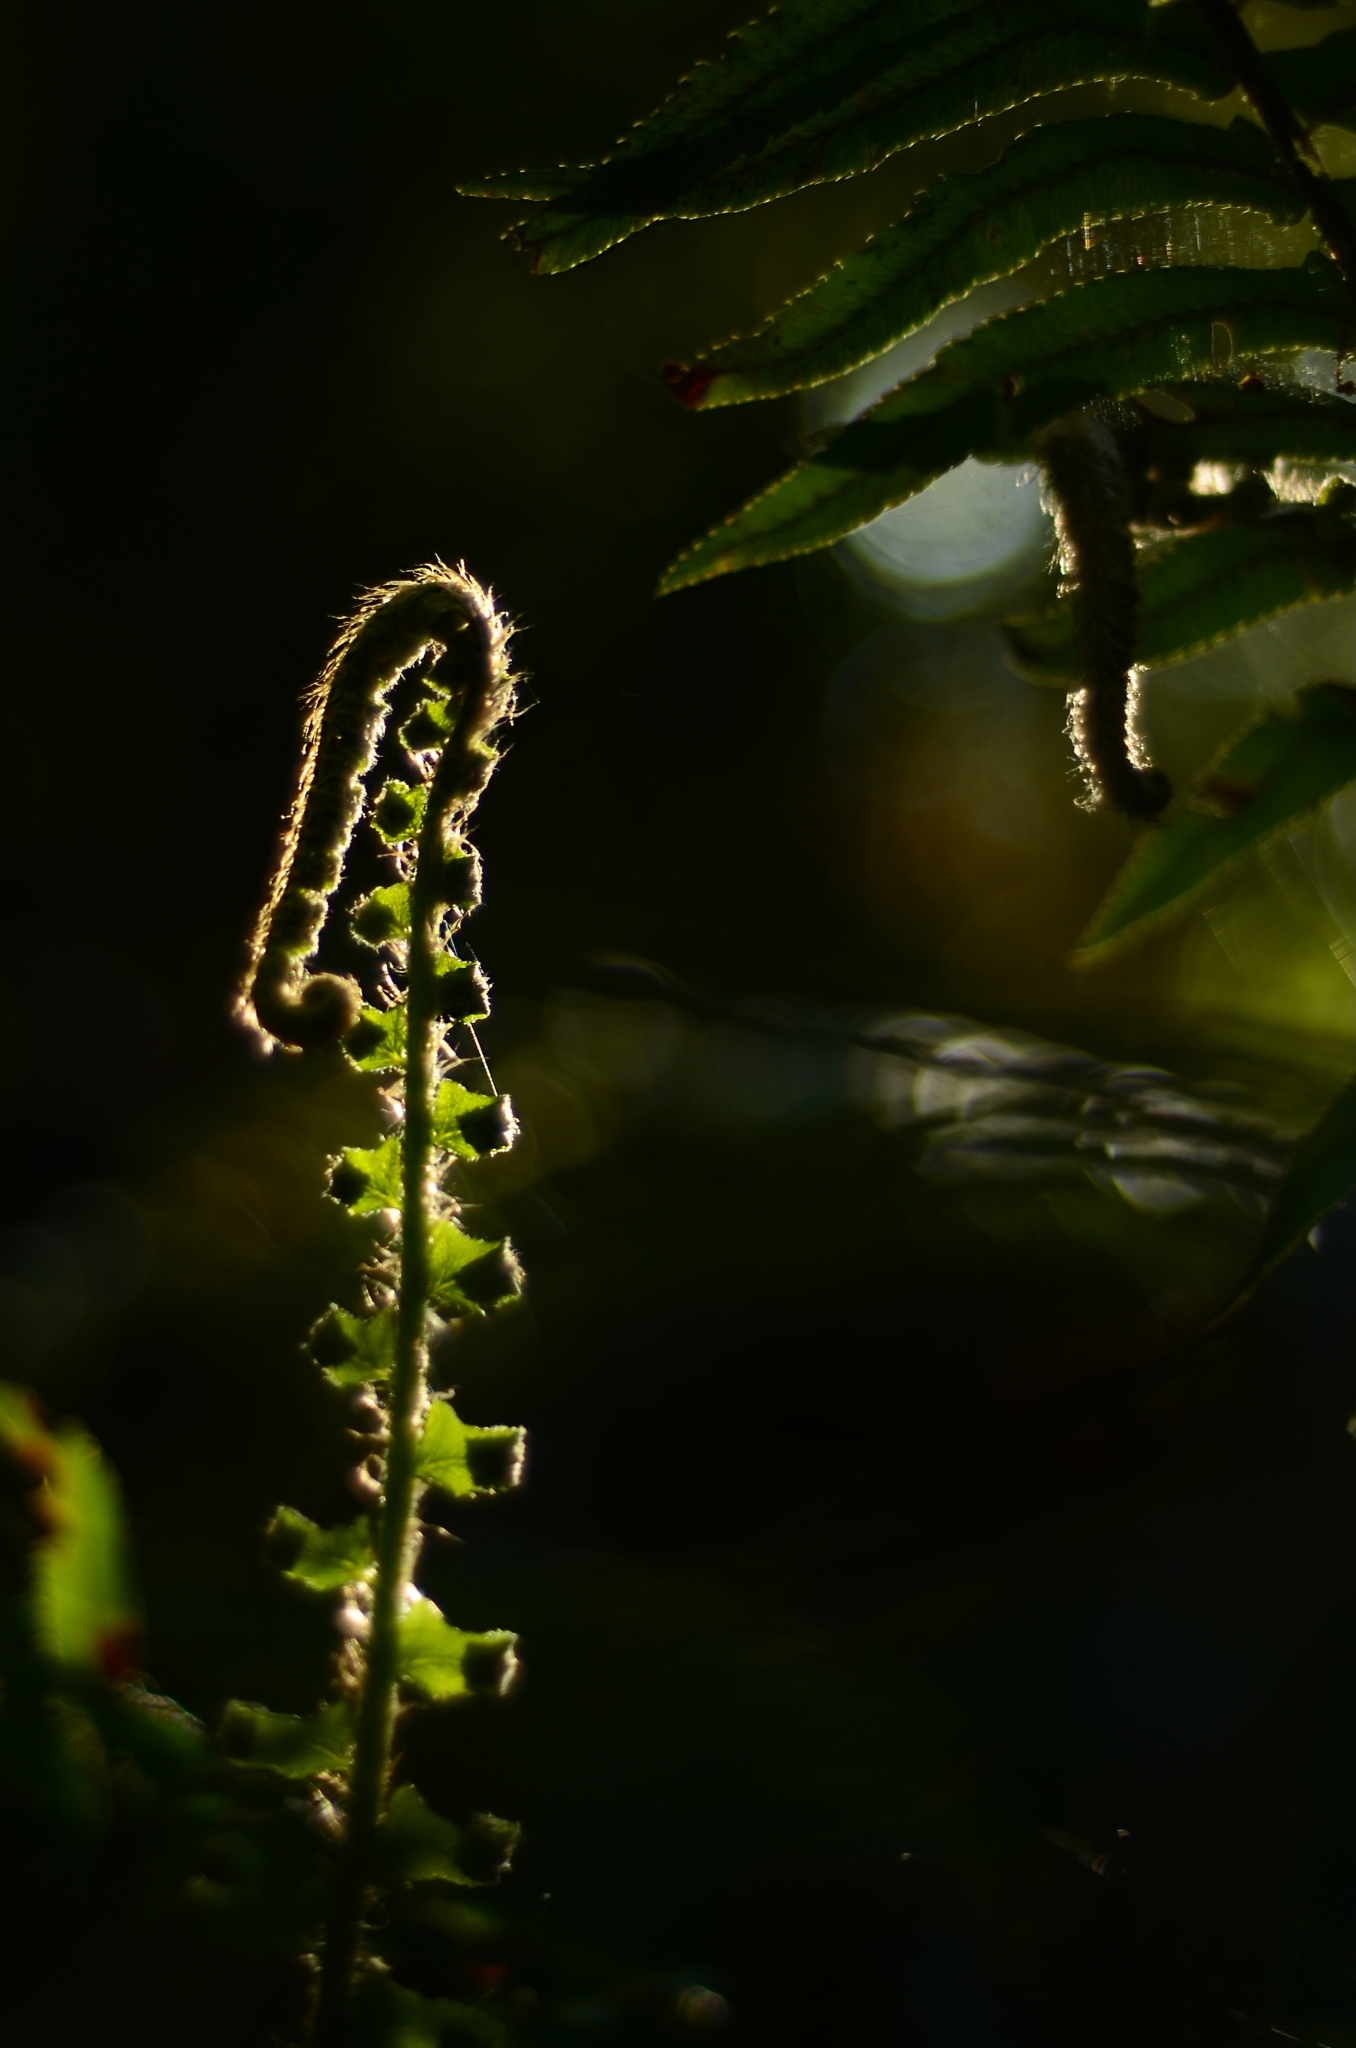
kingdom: Plantae
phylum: Tracheophyta
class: Polypodiopsida
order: Polypodiales
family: Dryopteridaceae
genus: Polystichum
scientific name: Polystichum munitum
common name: Western sword-fern
